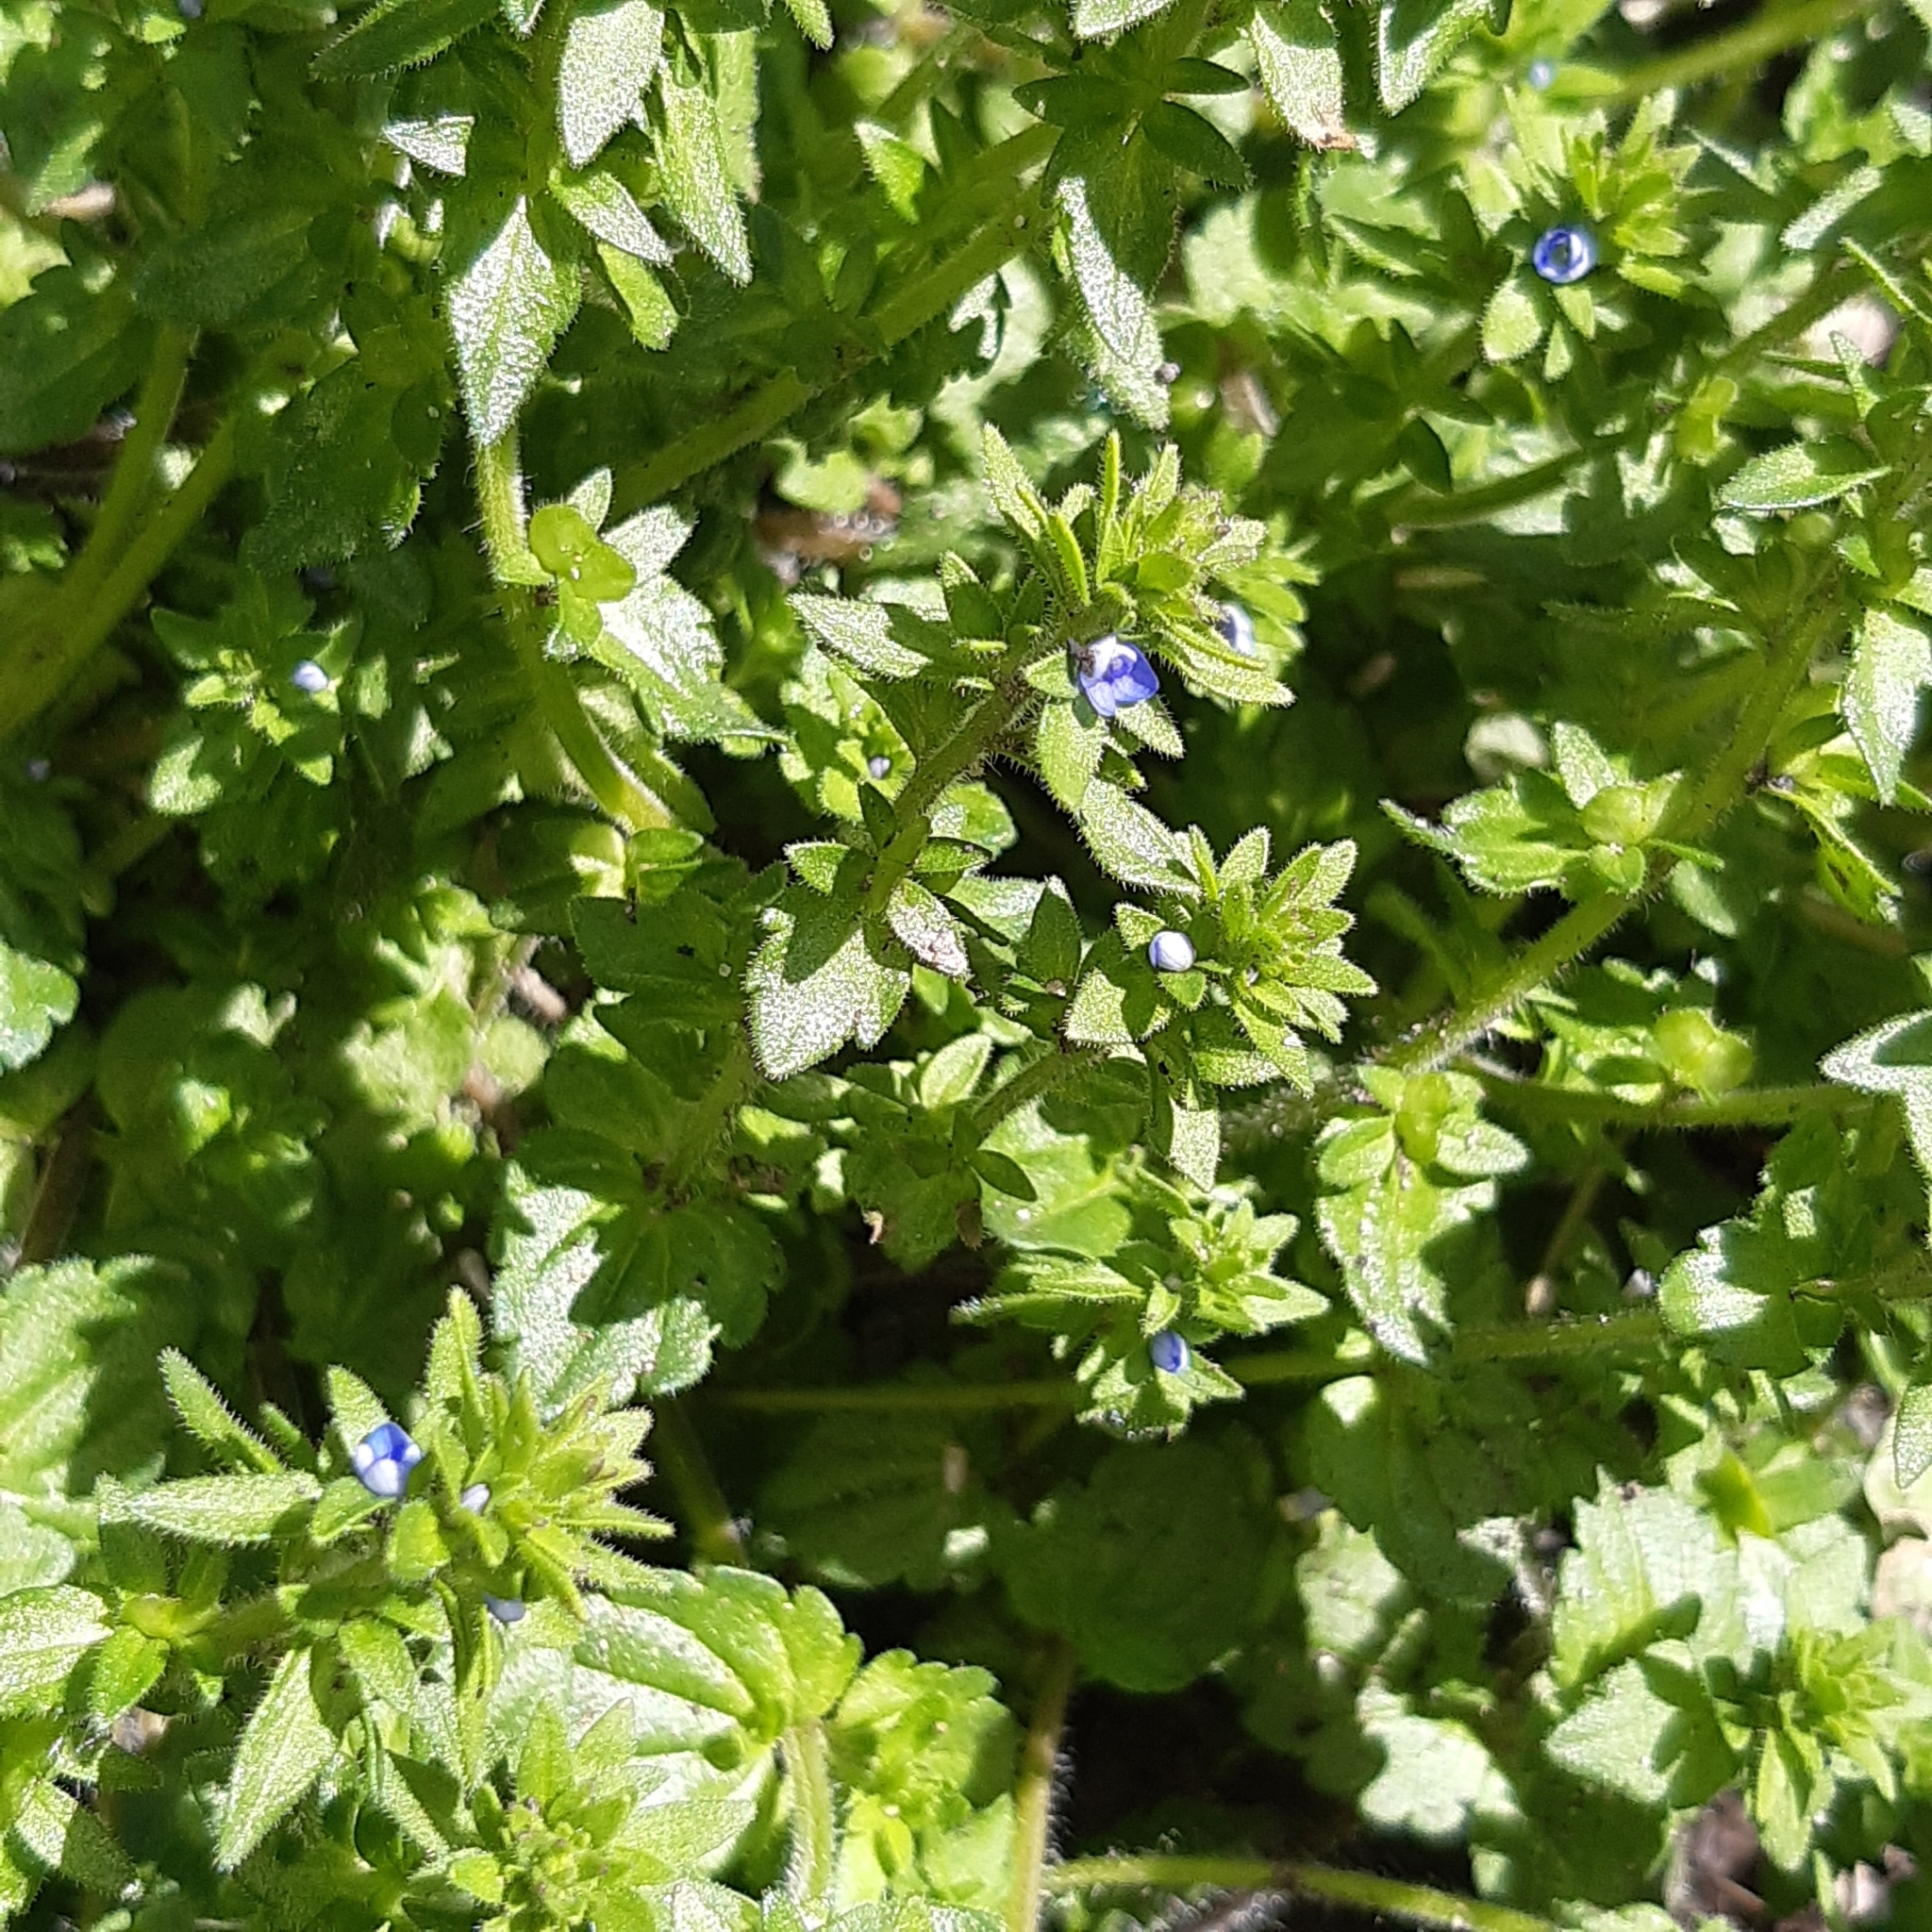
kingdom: Plantae
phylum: Tracheophyta
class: Magnoliopsida
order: Lamiales
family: Plantaginaceae
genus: Veronica
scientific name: Veronica arvensis
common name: Corn speedwell
